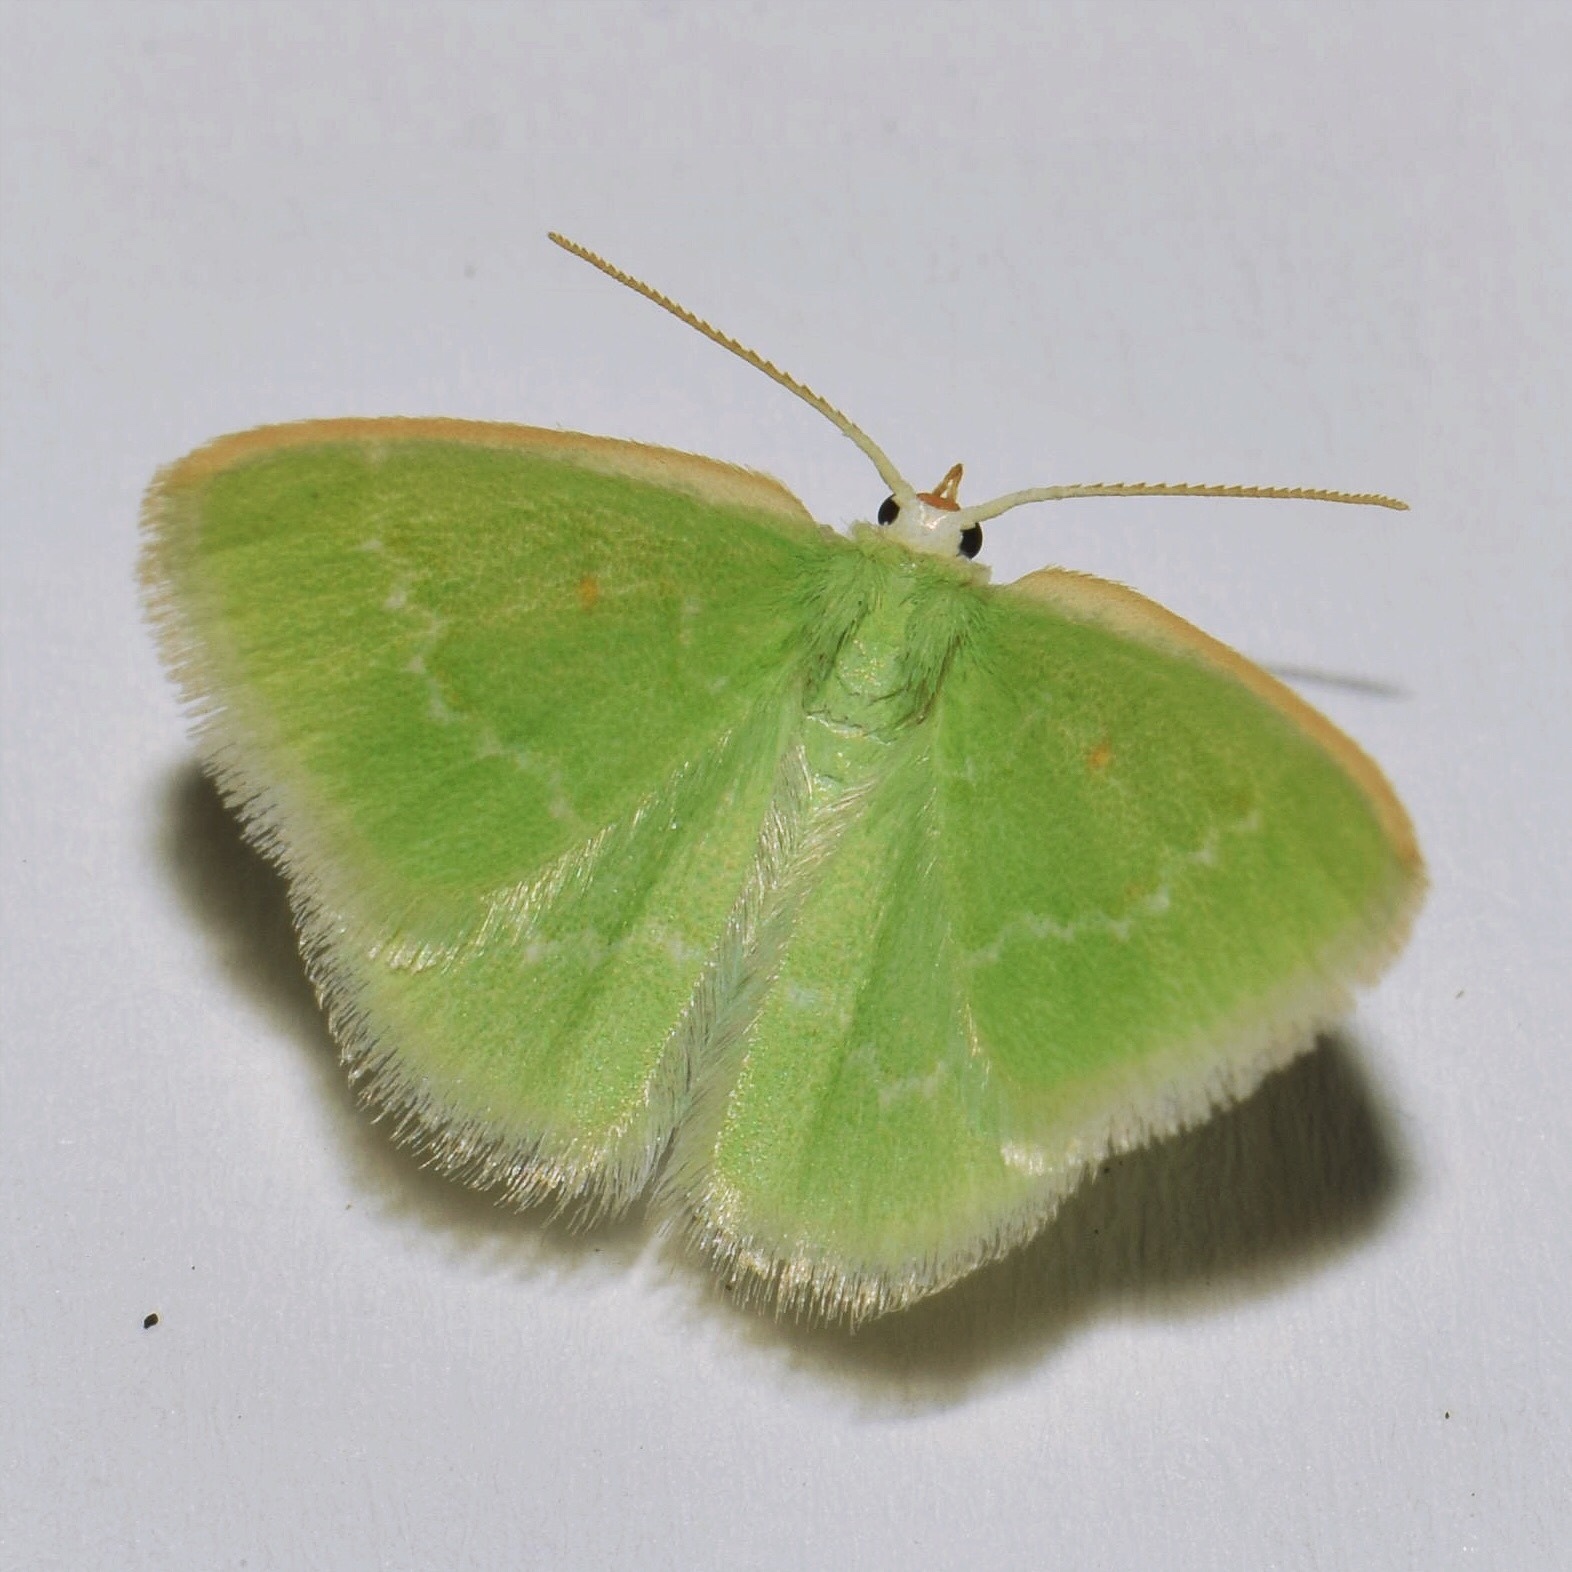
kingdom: Animalia
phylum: Arthropoda
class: Insecta
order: Lepidoptera
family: Geometridae
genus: Comostolopsis
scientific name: Comostolopsis germana
